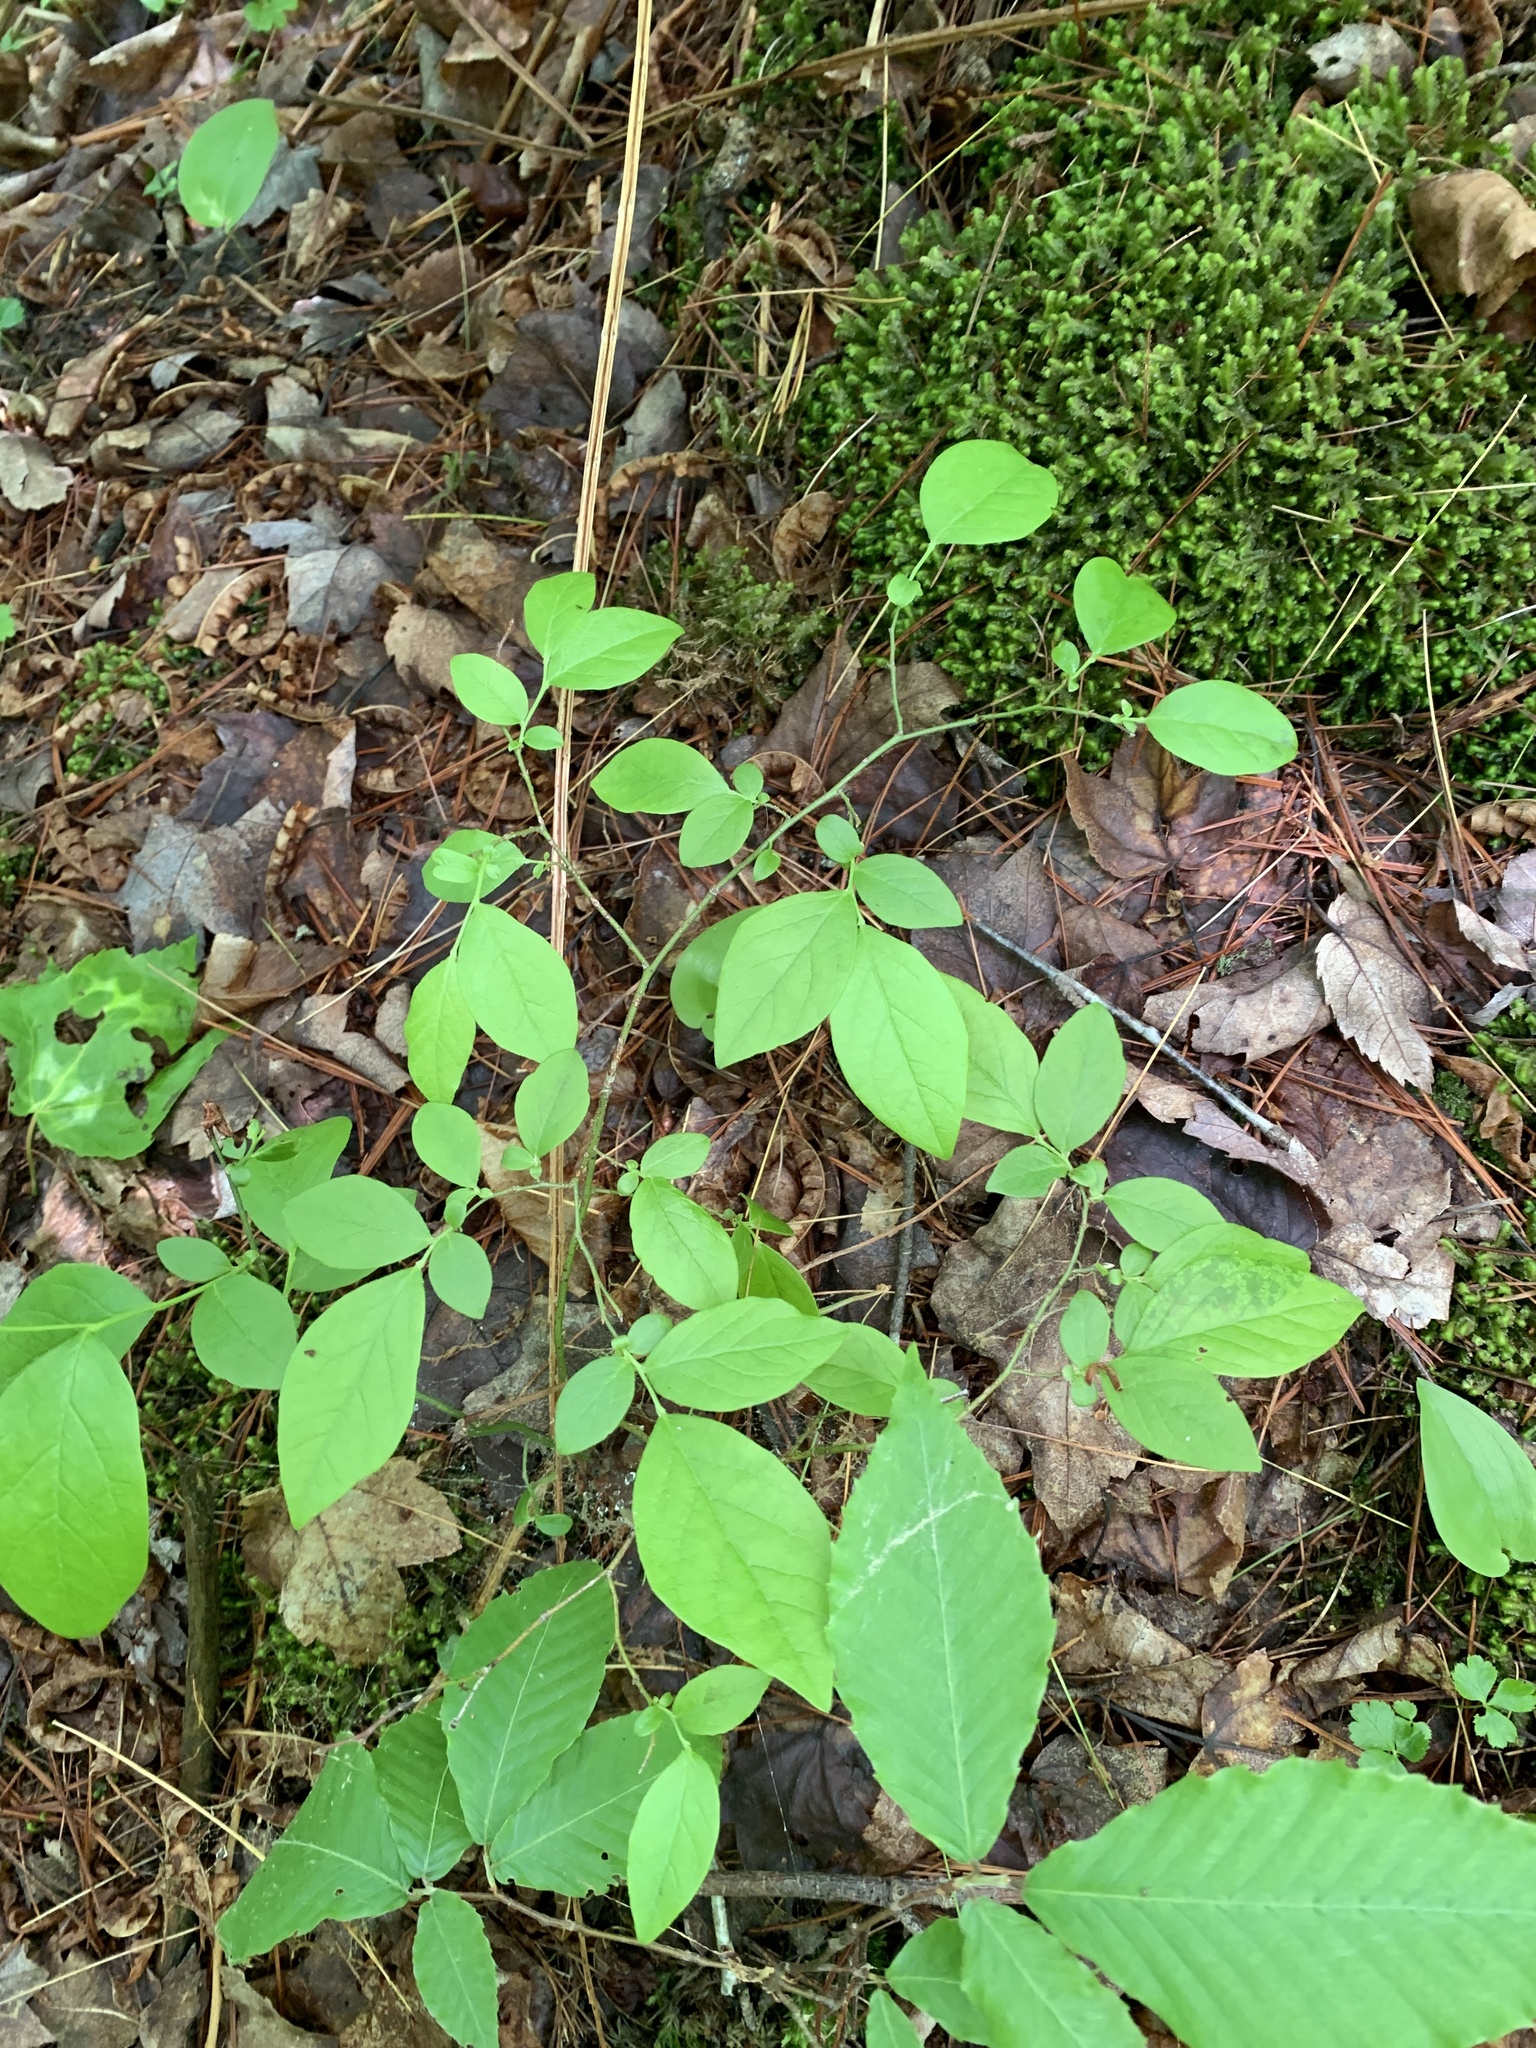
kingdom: Plantae
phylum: Tracheophyta
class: Magnoliopsida
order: Ericales
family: Ericaceae
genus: Vaccinium
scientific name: Vaccinium pallidum
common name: Blue ridge blueberry
